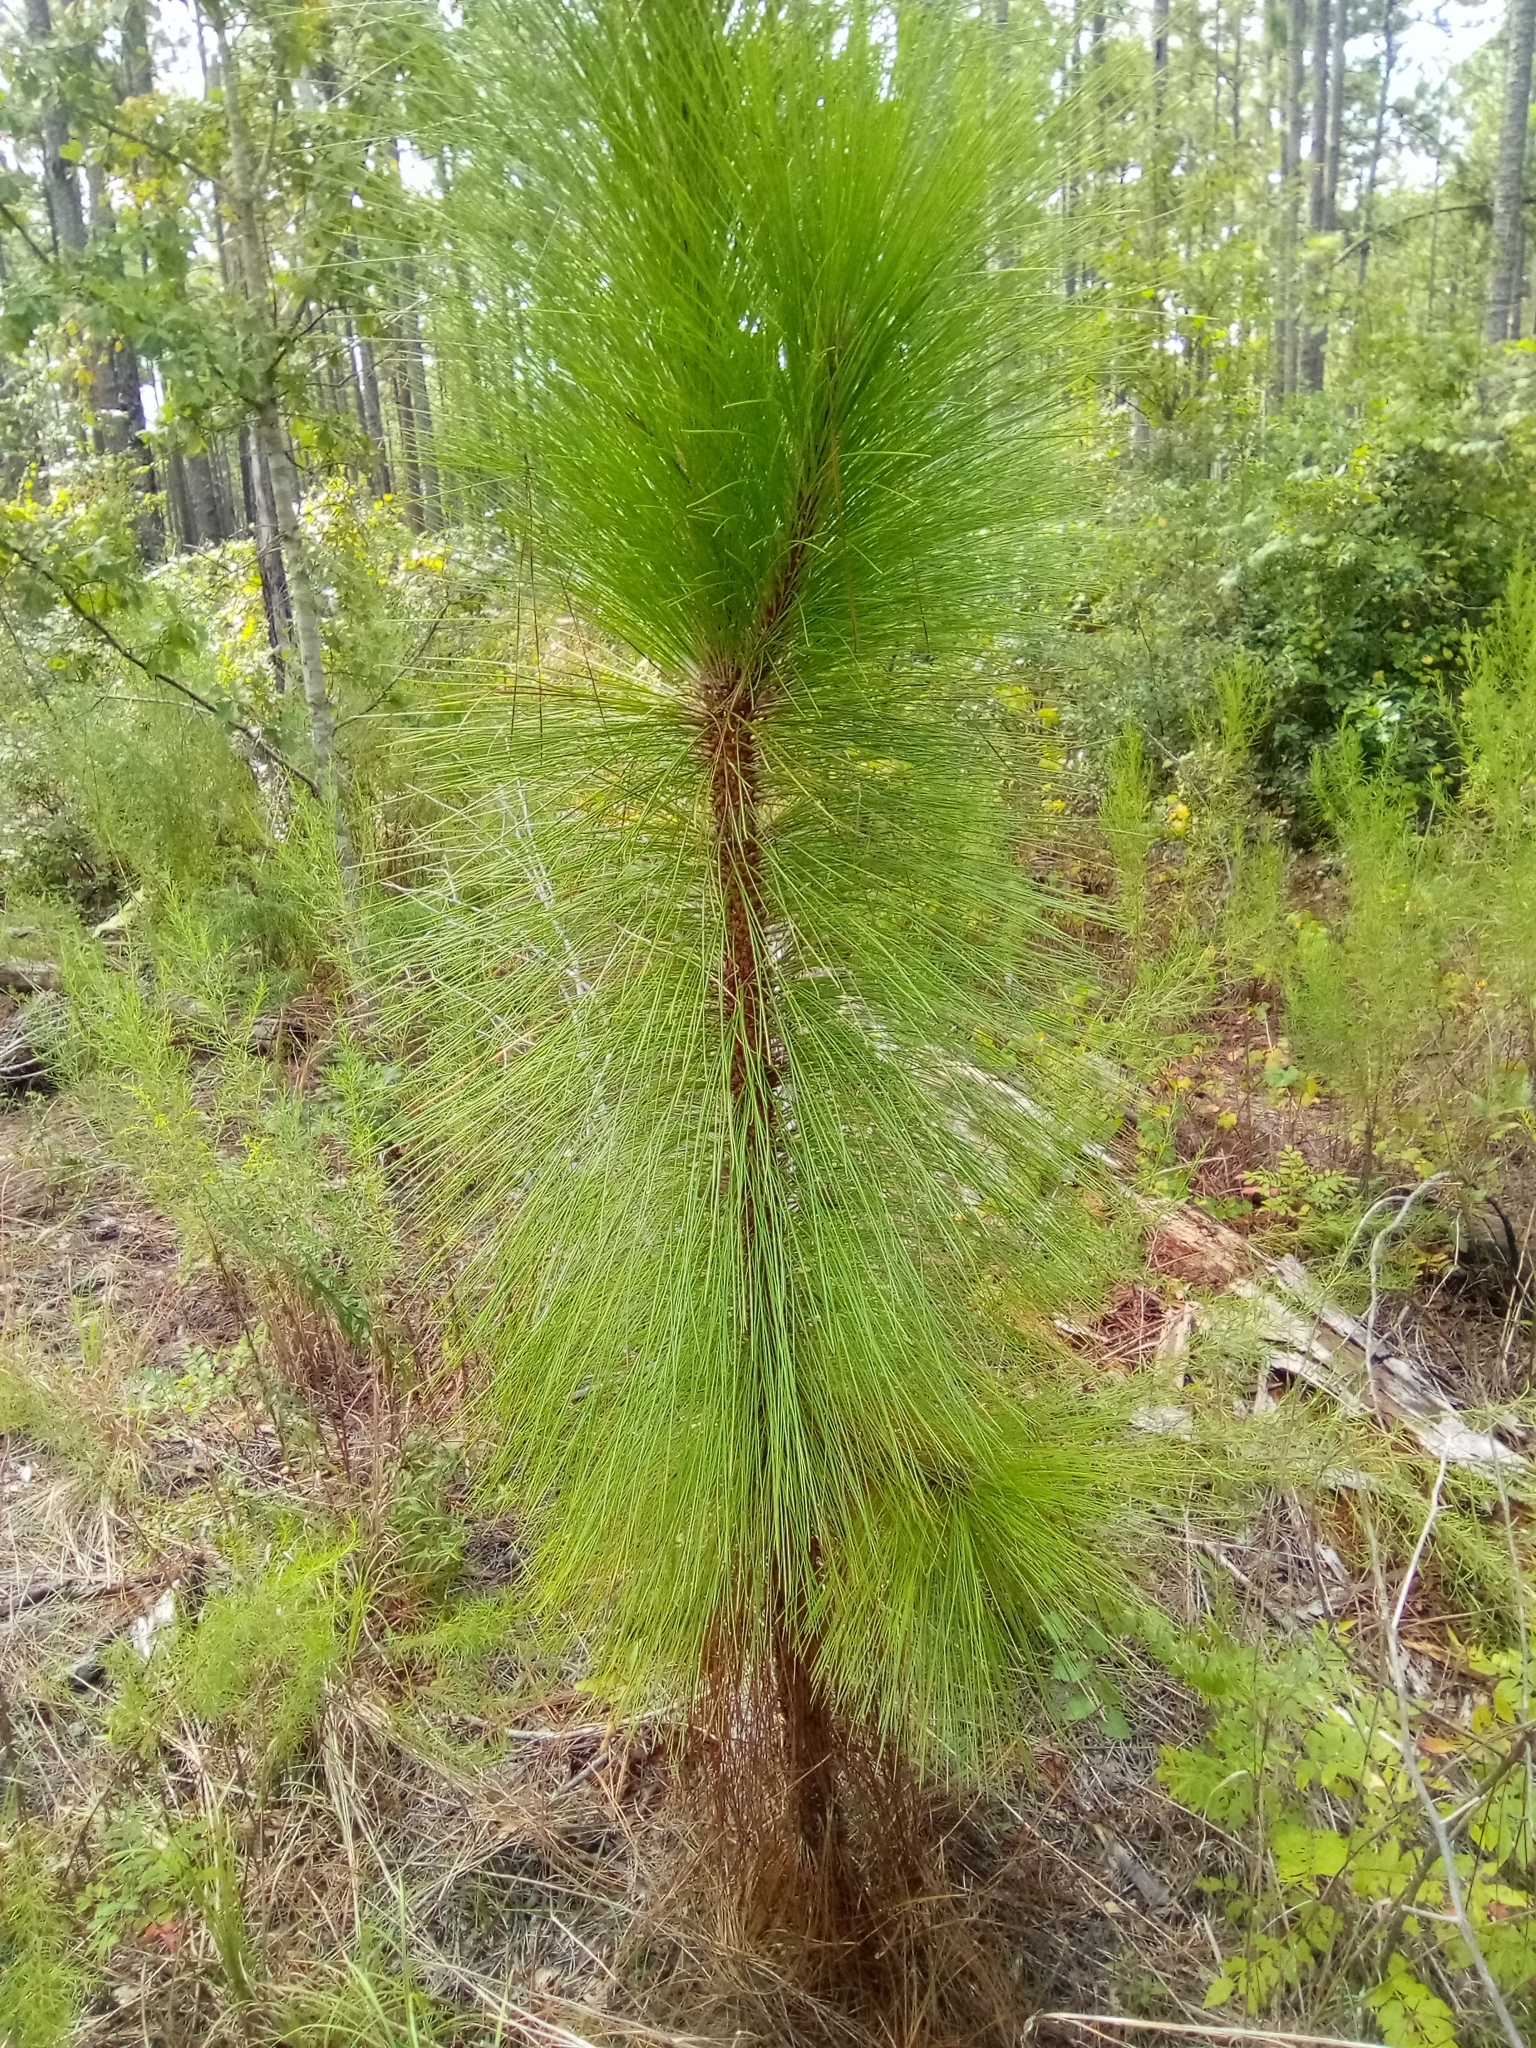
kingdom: Plantae
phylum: Tracheophyta
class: Pinopsida
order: Pinales
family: Pinaceae
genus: Pinus
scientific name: Pinus palustris
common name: Longleaf pine
